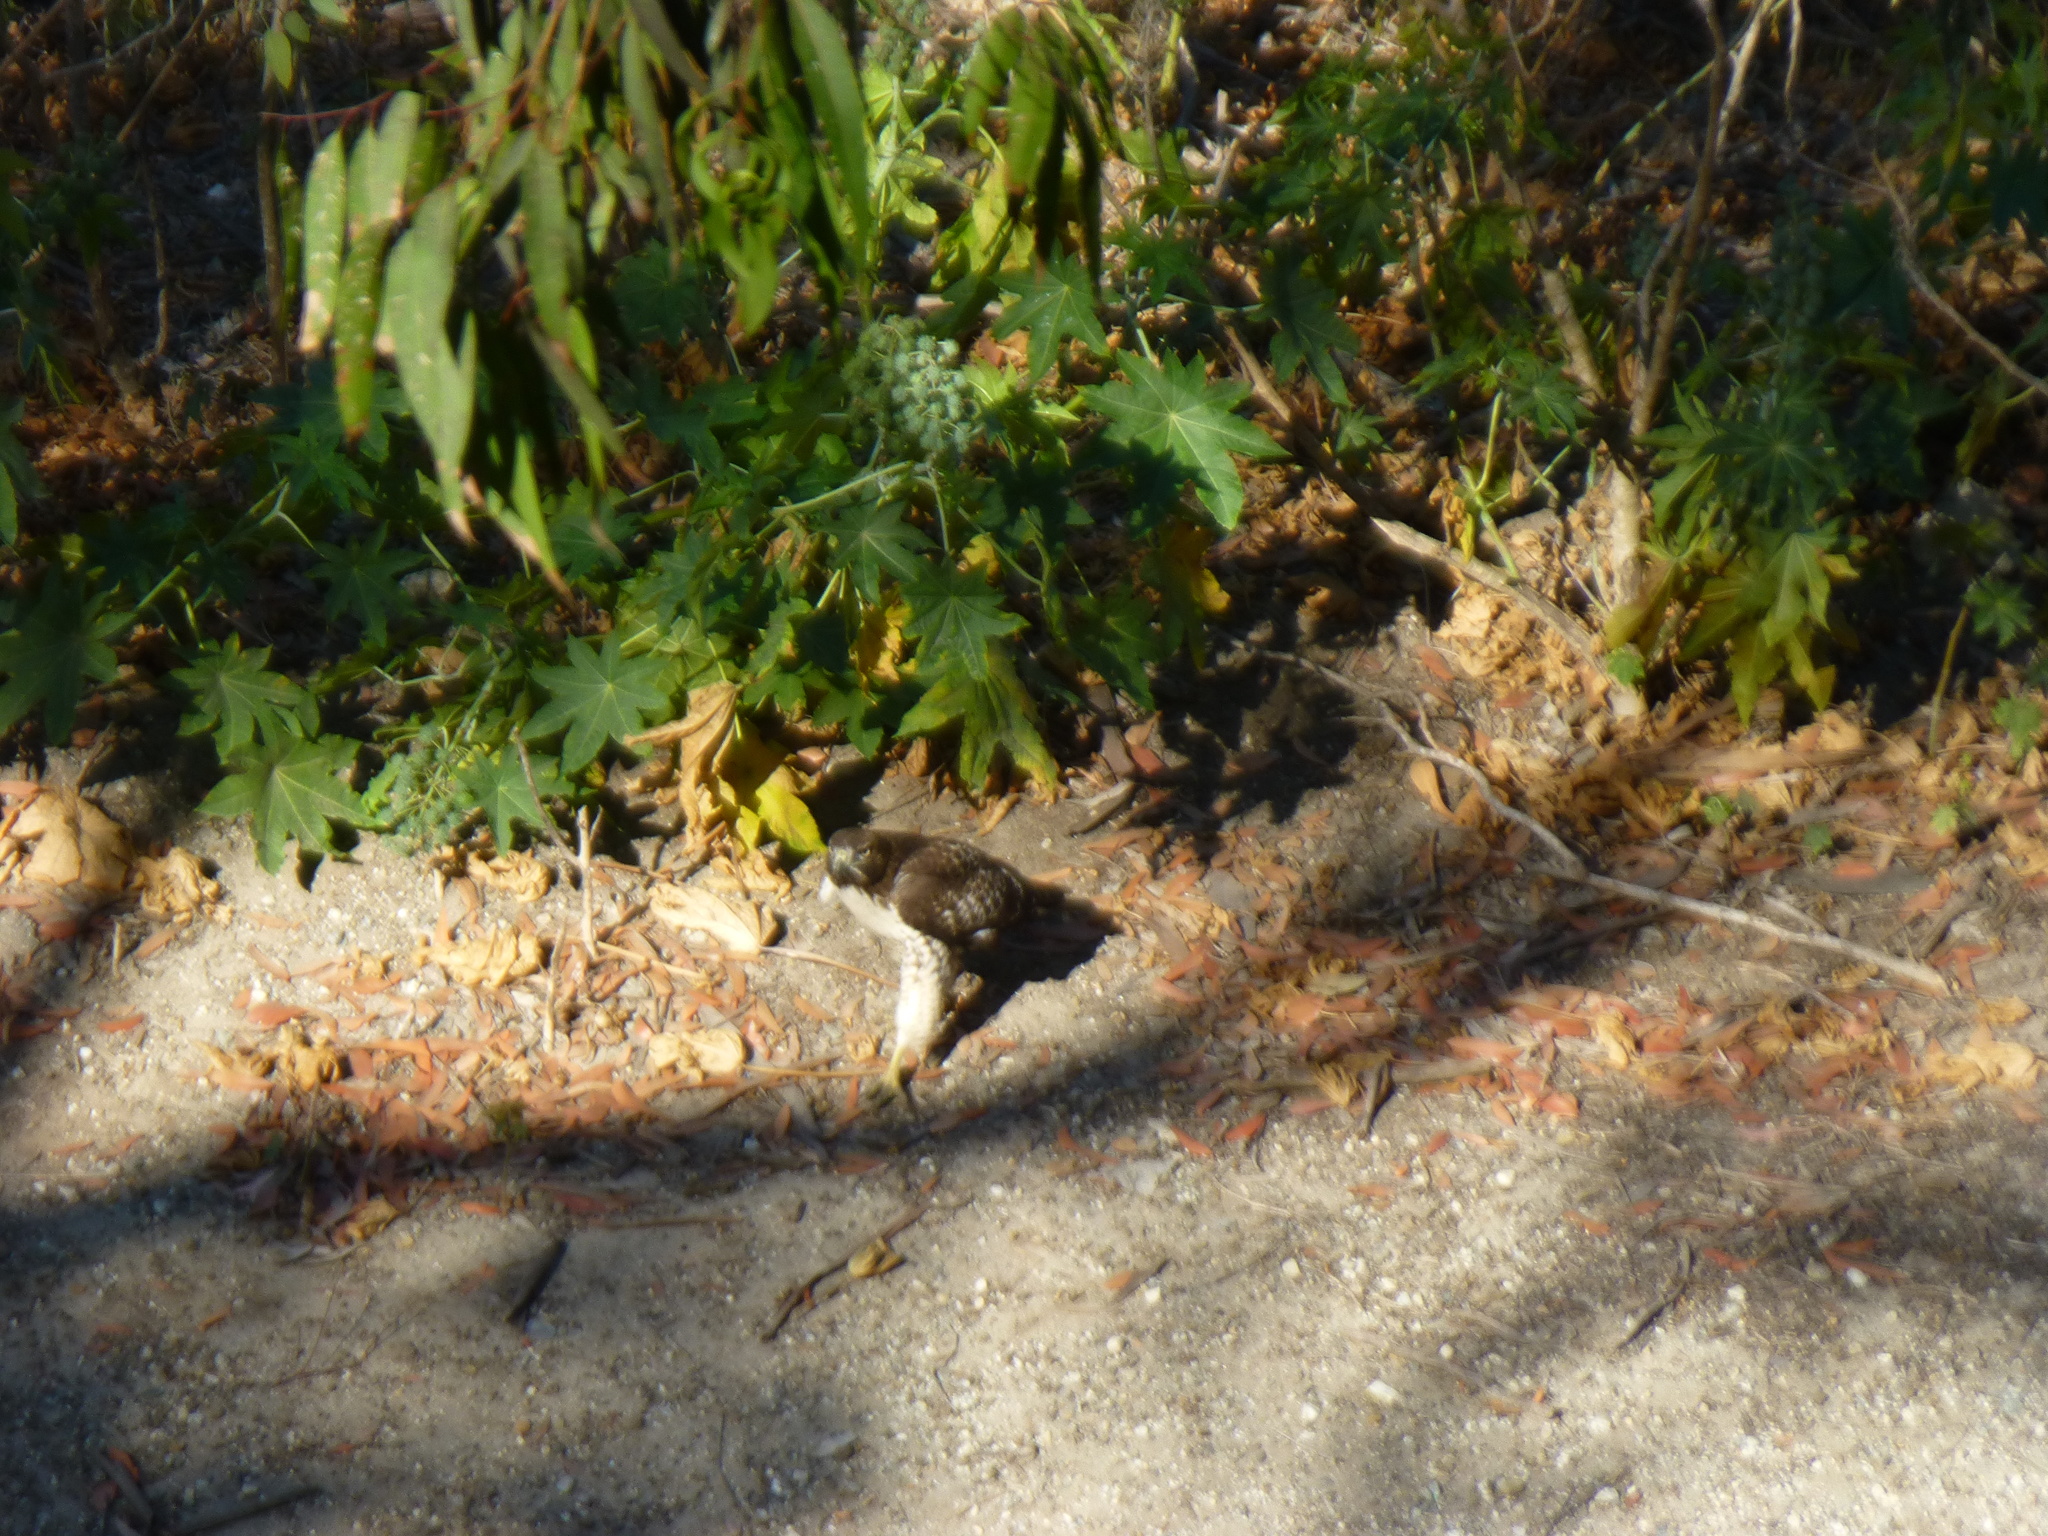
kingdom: Animalia
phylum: Chordata
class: Aves
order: Accipitriformes
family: Accipitridae
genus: Buteo
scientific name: Buteo jamaicensis
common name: Red-tailed hawk
